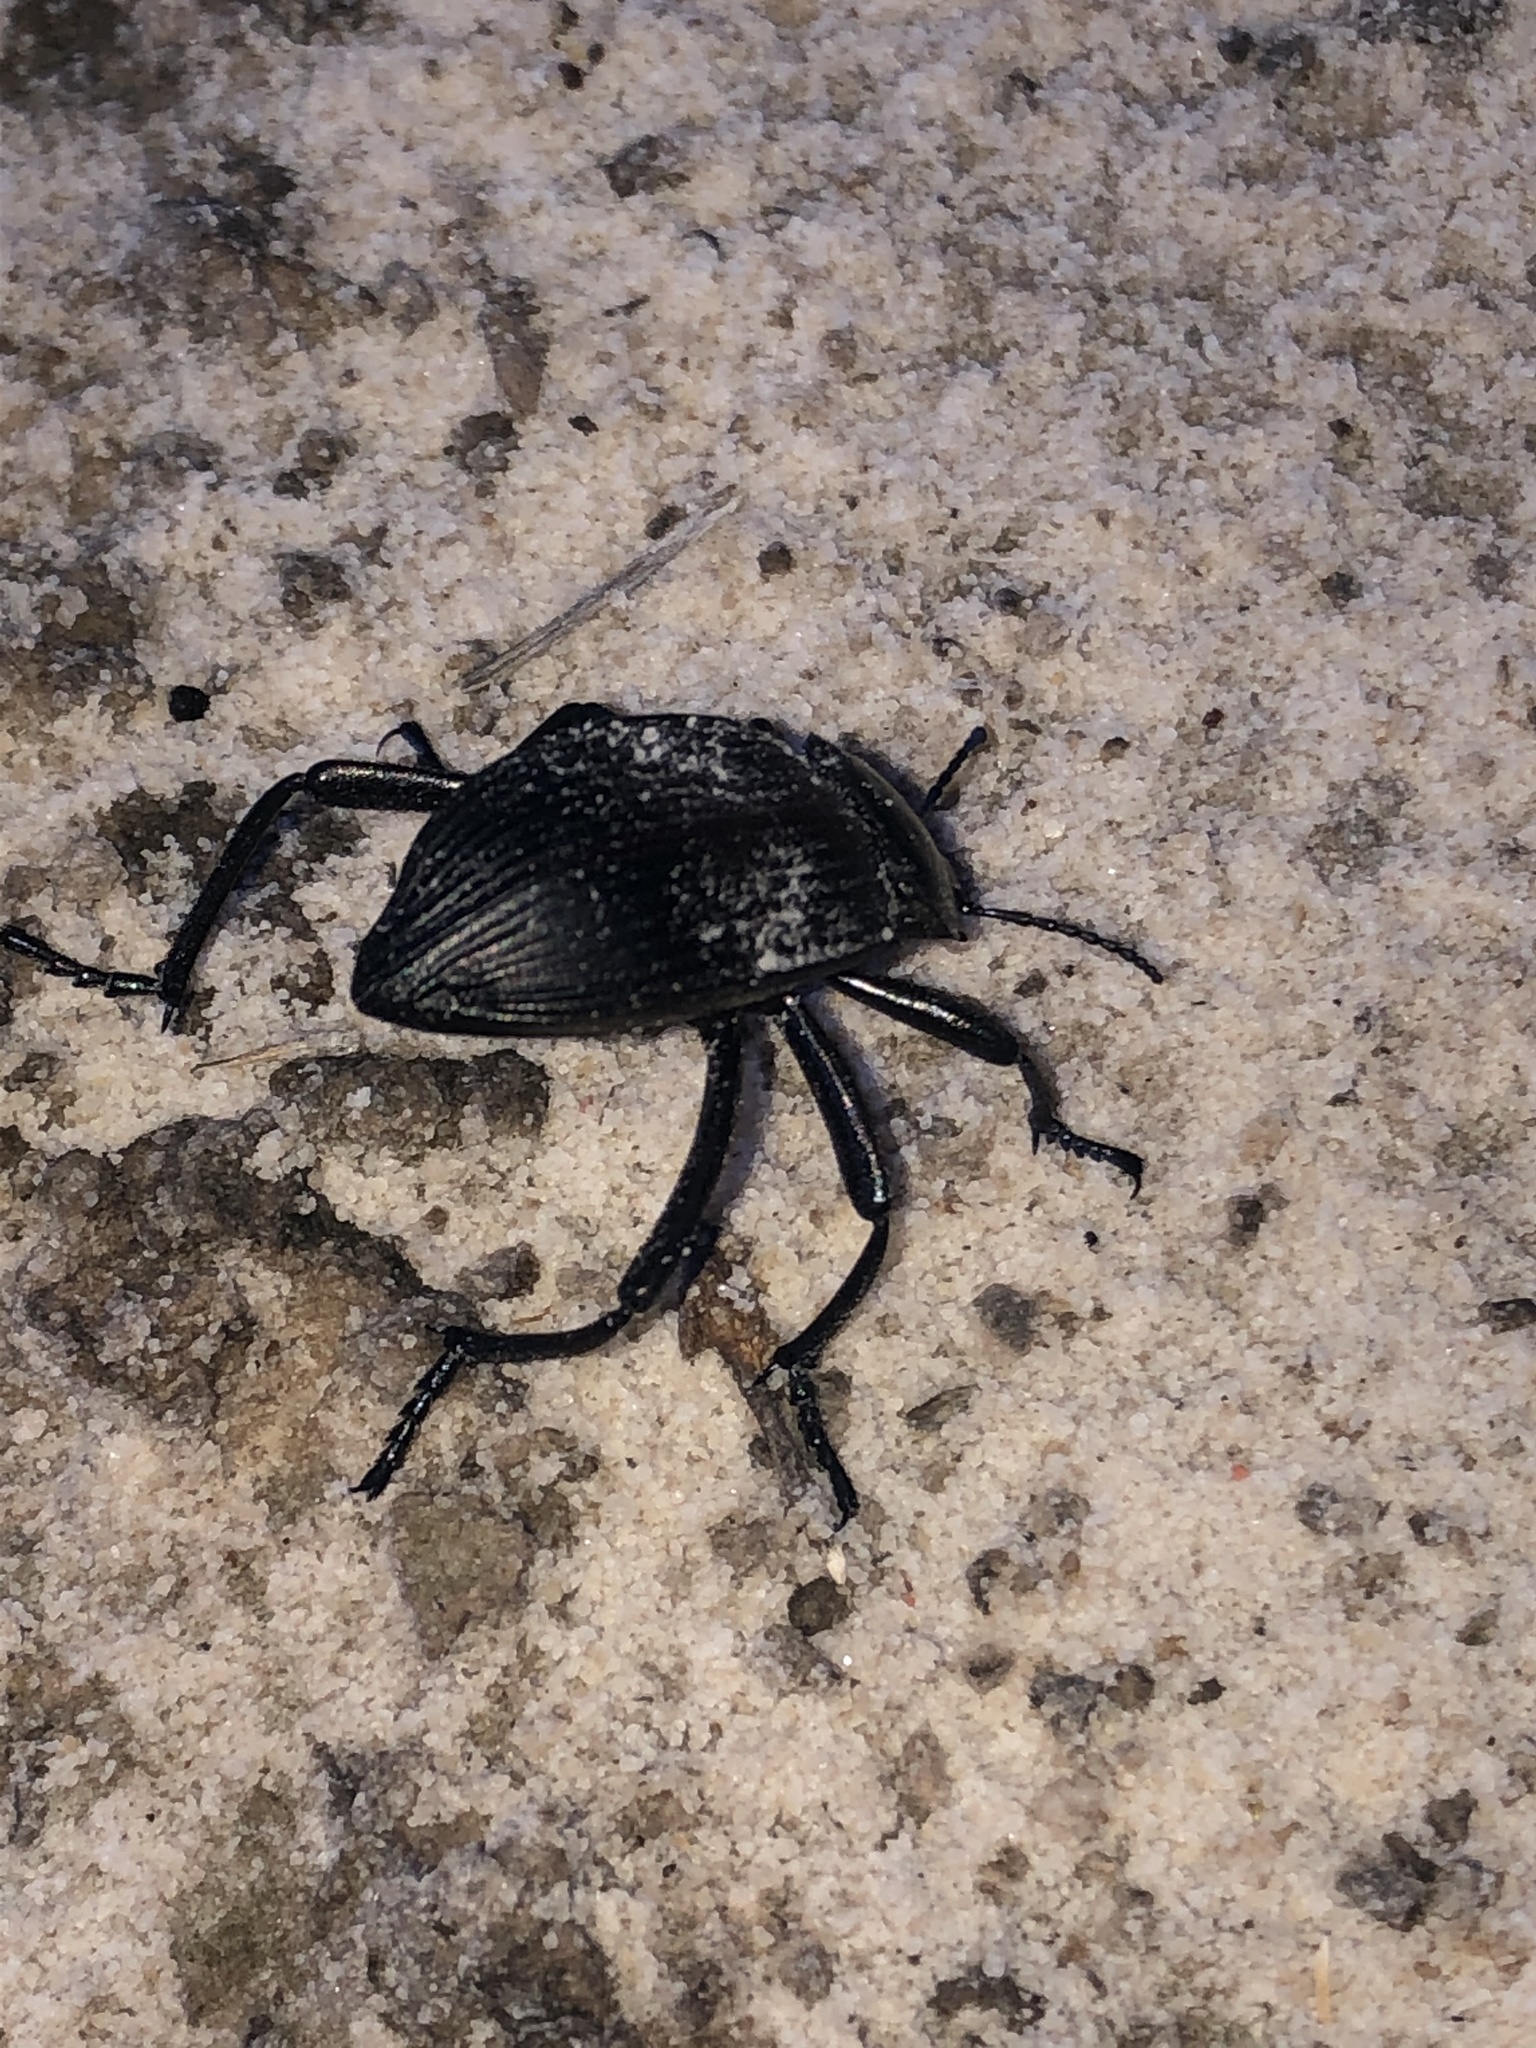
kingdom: Animalia
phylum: Arthropoda
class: Insecta
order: Coleoptera
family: Tenebrionidae
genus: Eleodes
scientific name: Eleodes acuta
